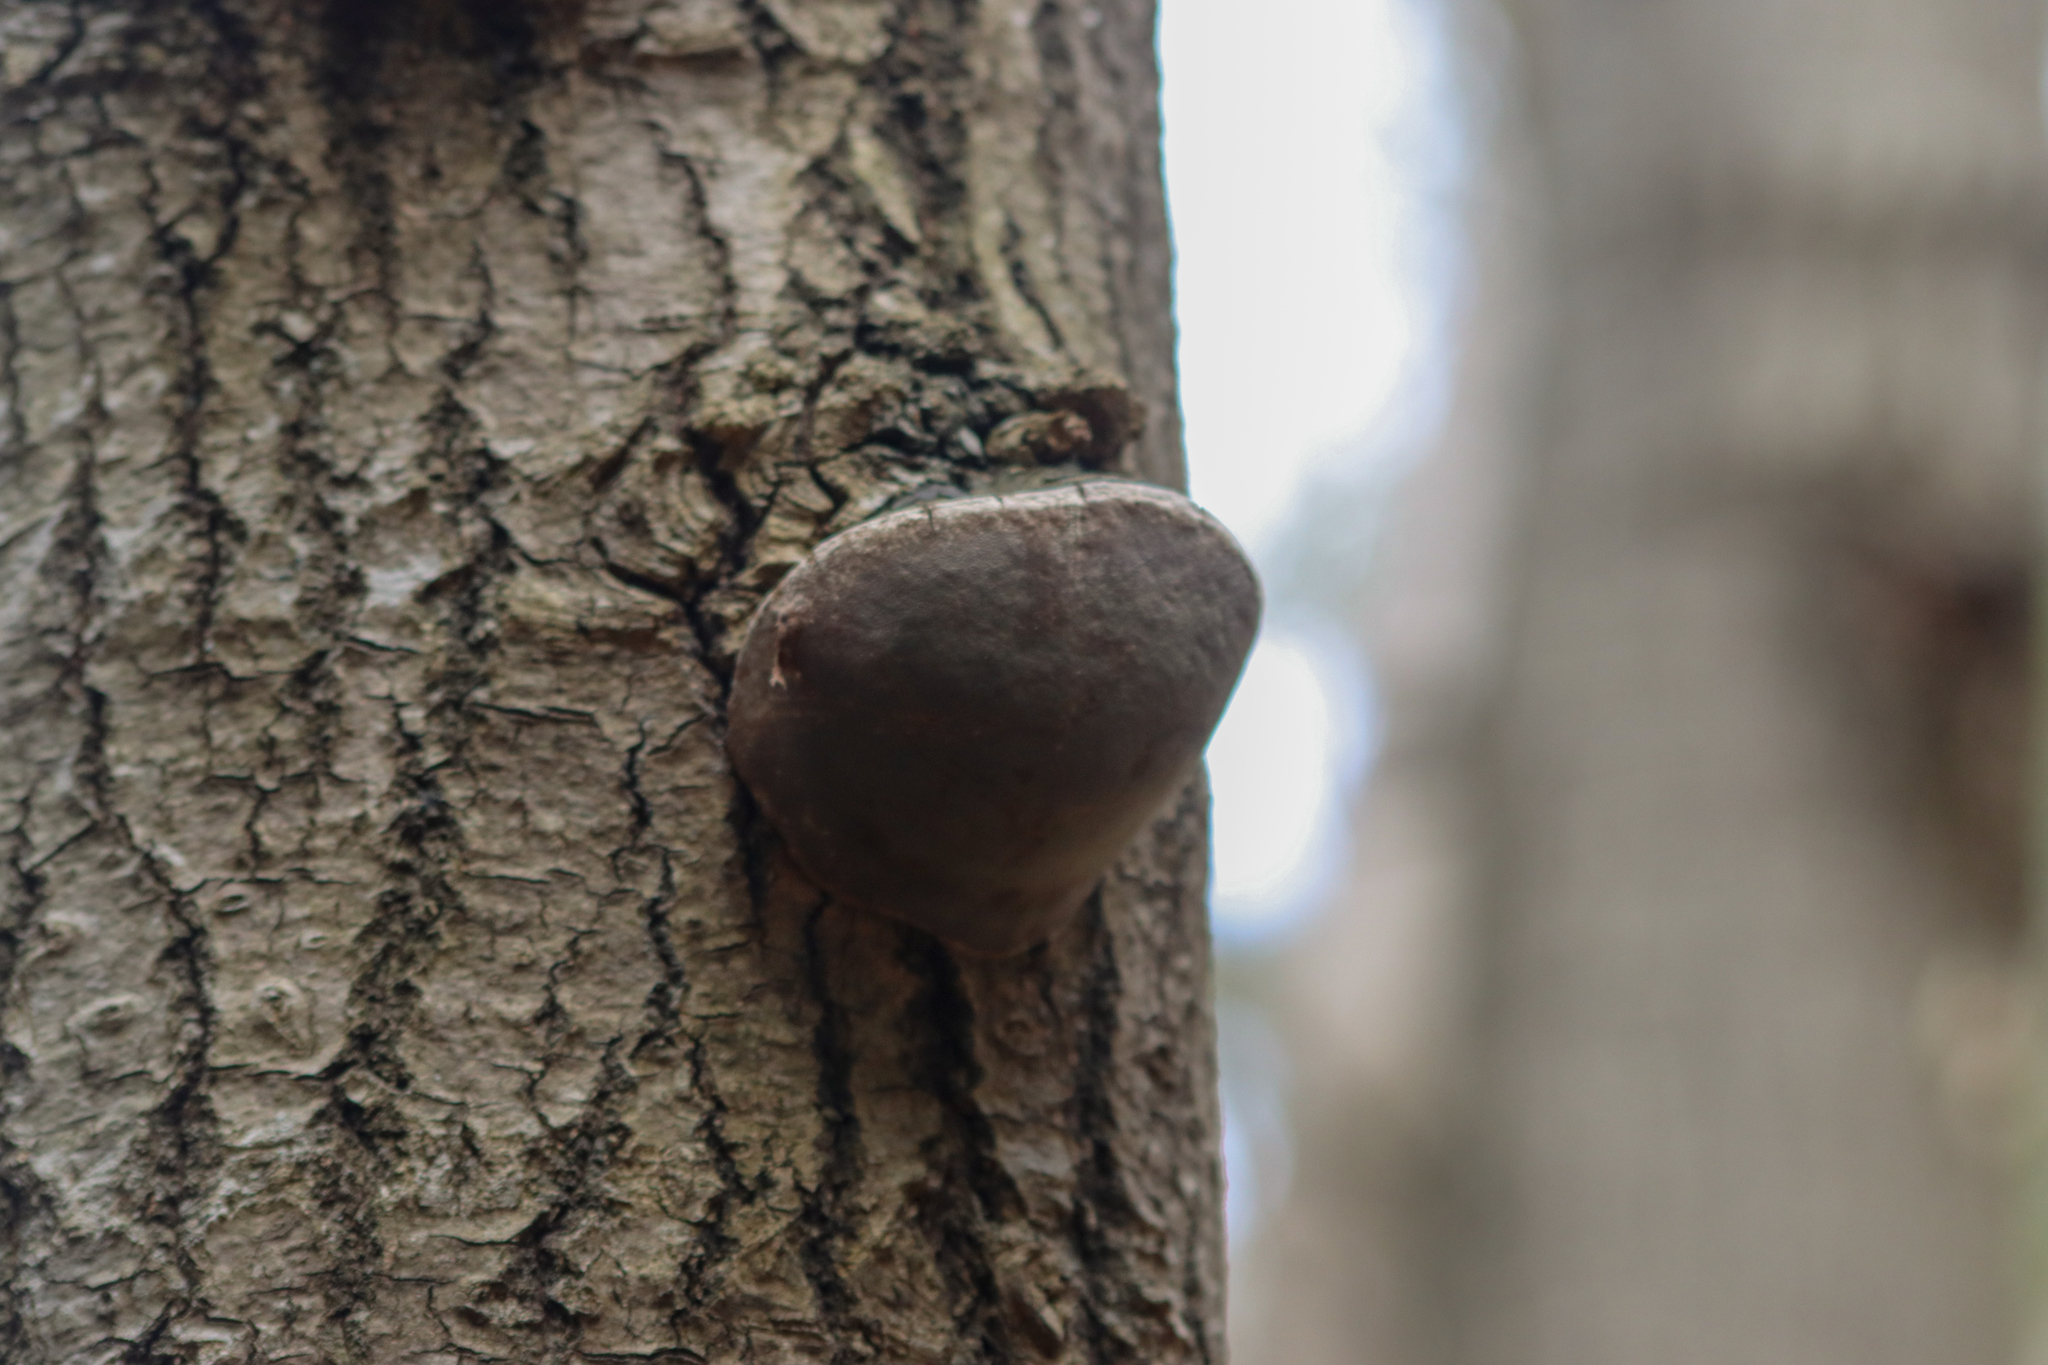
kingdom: Fungi
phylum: Basidiomycota
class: Agaricomycetes
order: Hymenochaetales
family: Hymenochaetaceae
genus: Phellinus
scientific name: Phellinus tremulae
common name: Aspen bracket
